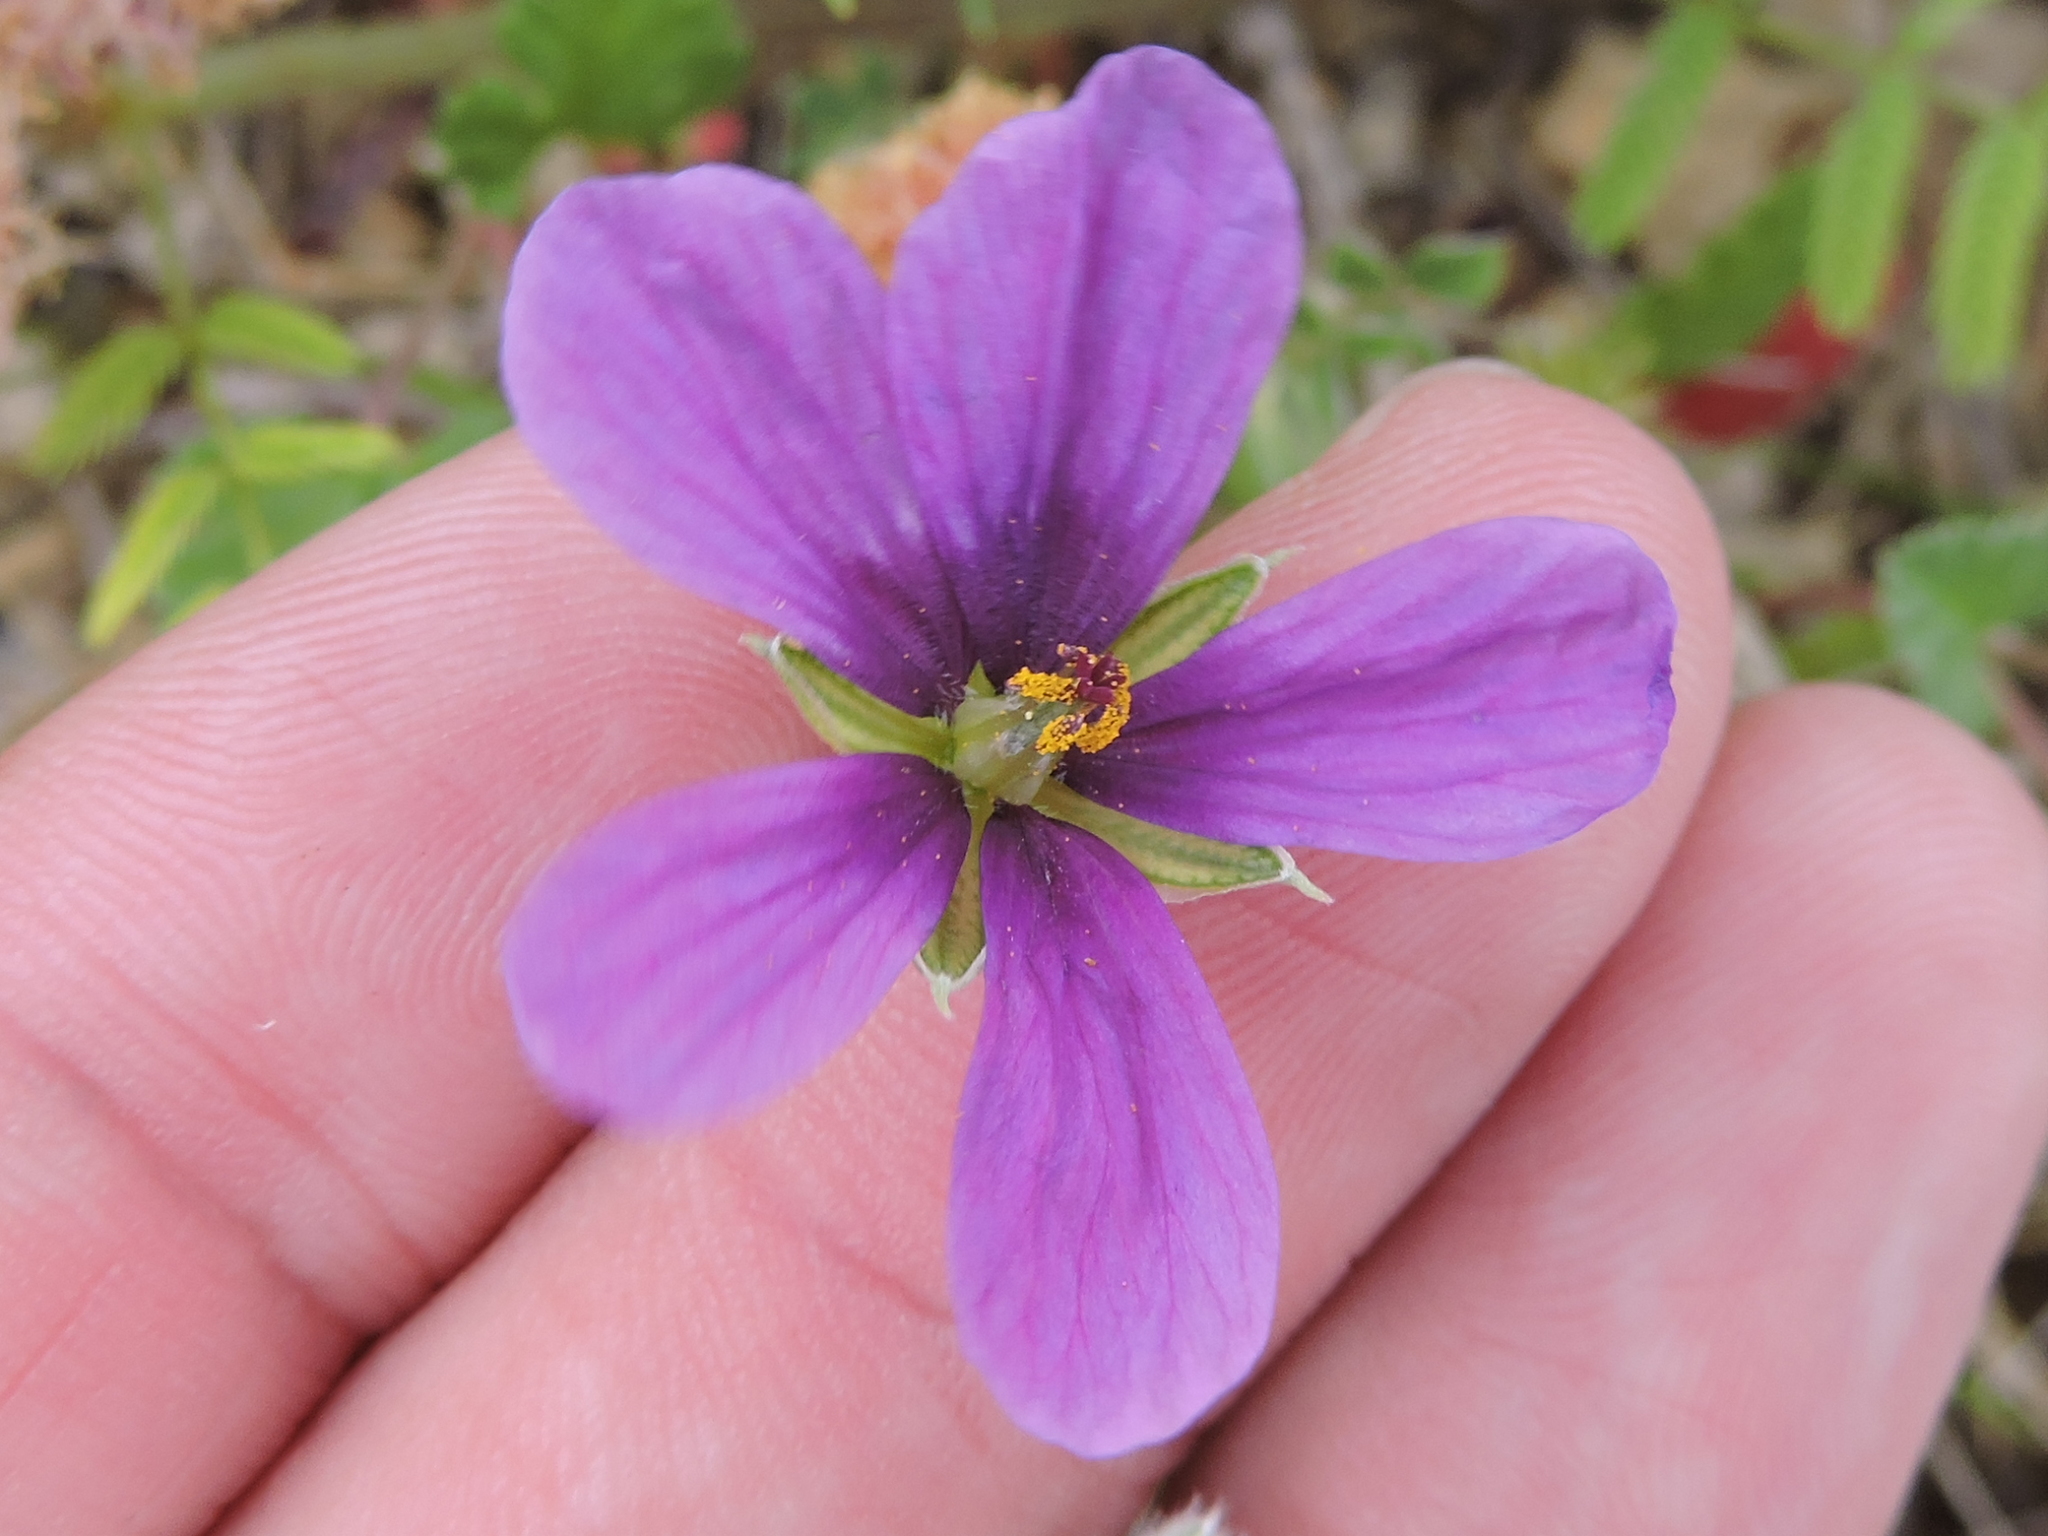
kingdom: Plantae
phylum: Tracheophyta
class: Magnoliopsida
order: Geraniales
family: Geraniaceae
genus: Erodium
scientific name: Erodium texanum
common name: Texas stork's-bill
